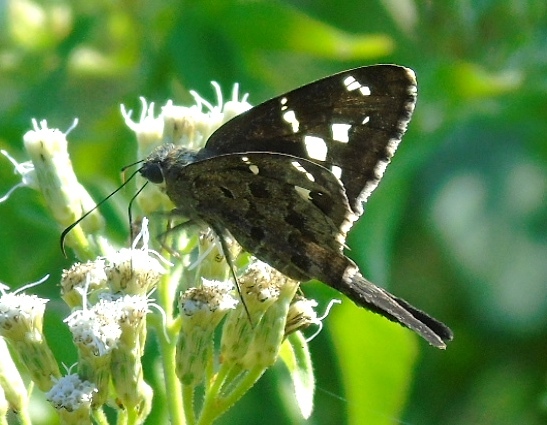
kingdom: Animalia
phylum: Arthropoda
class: Insecta
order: Lepidoptera
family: Hesperiidae
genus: Thorybes
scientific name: Thorybes
